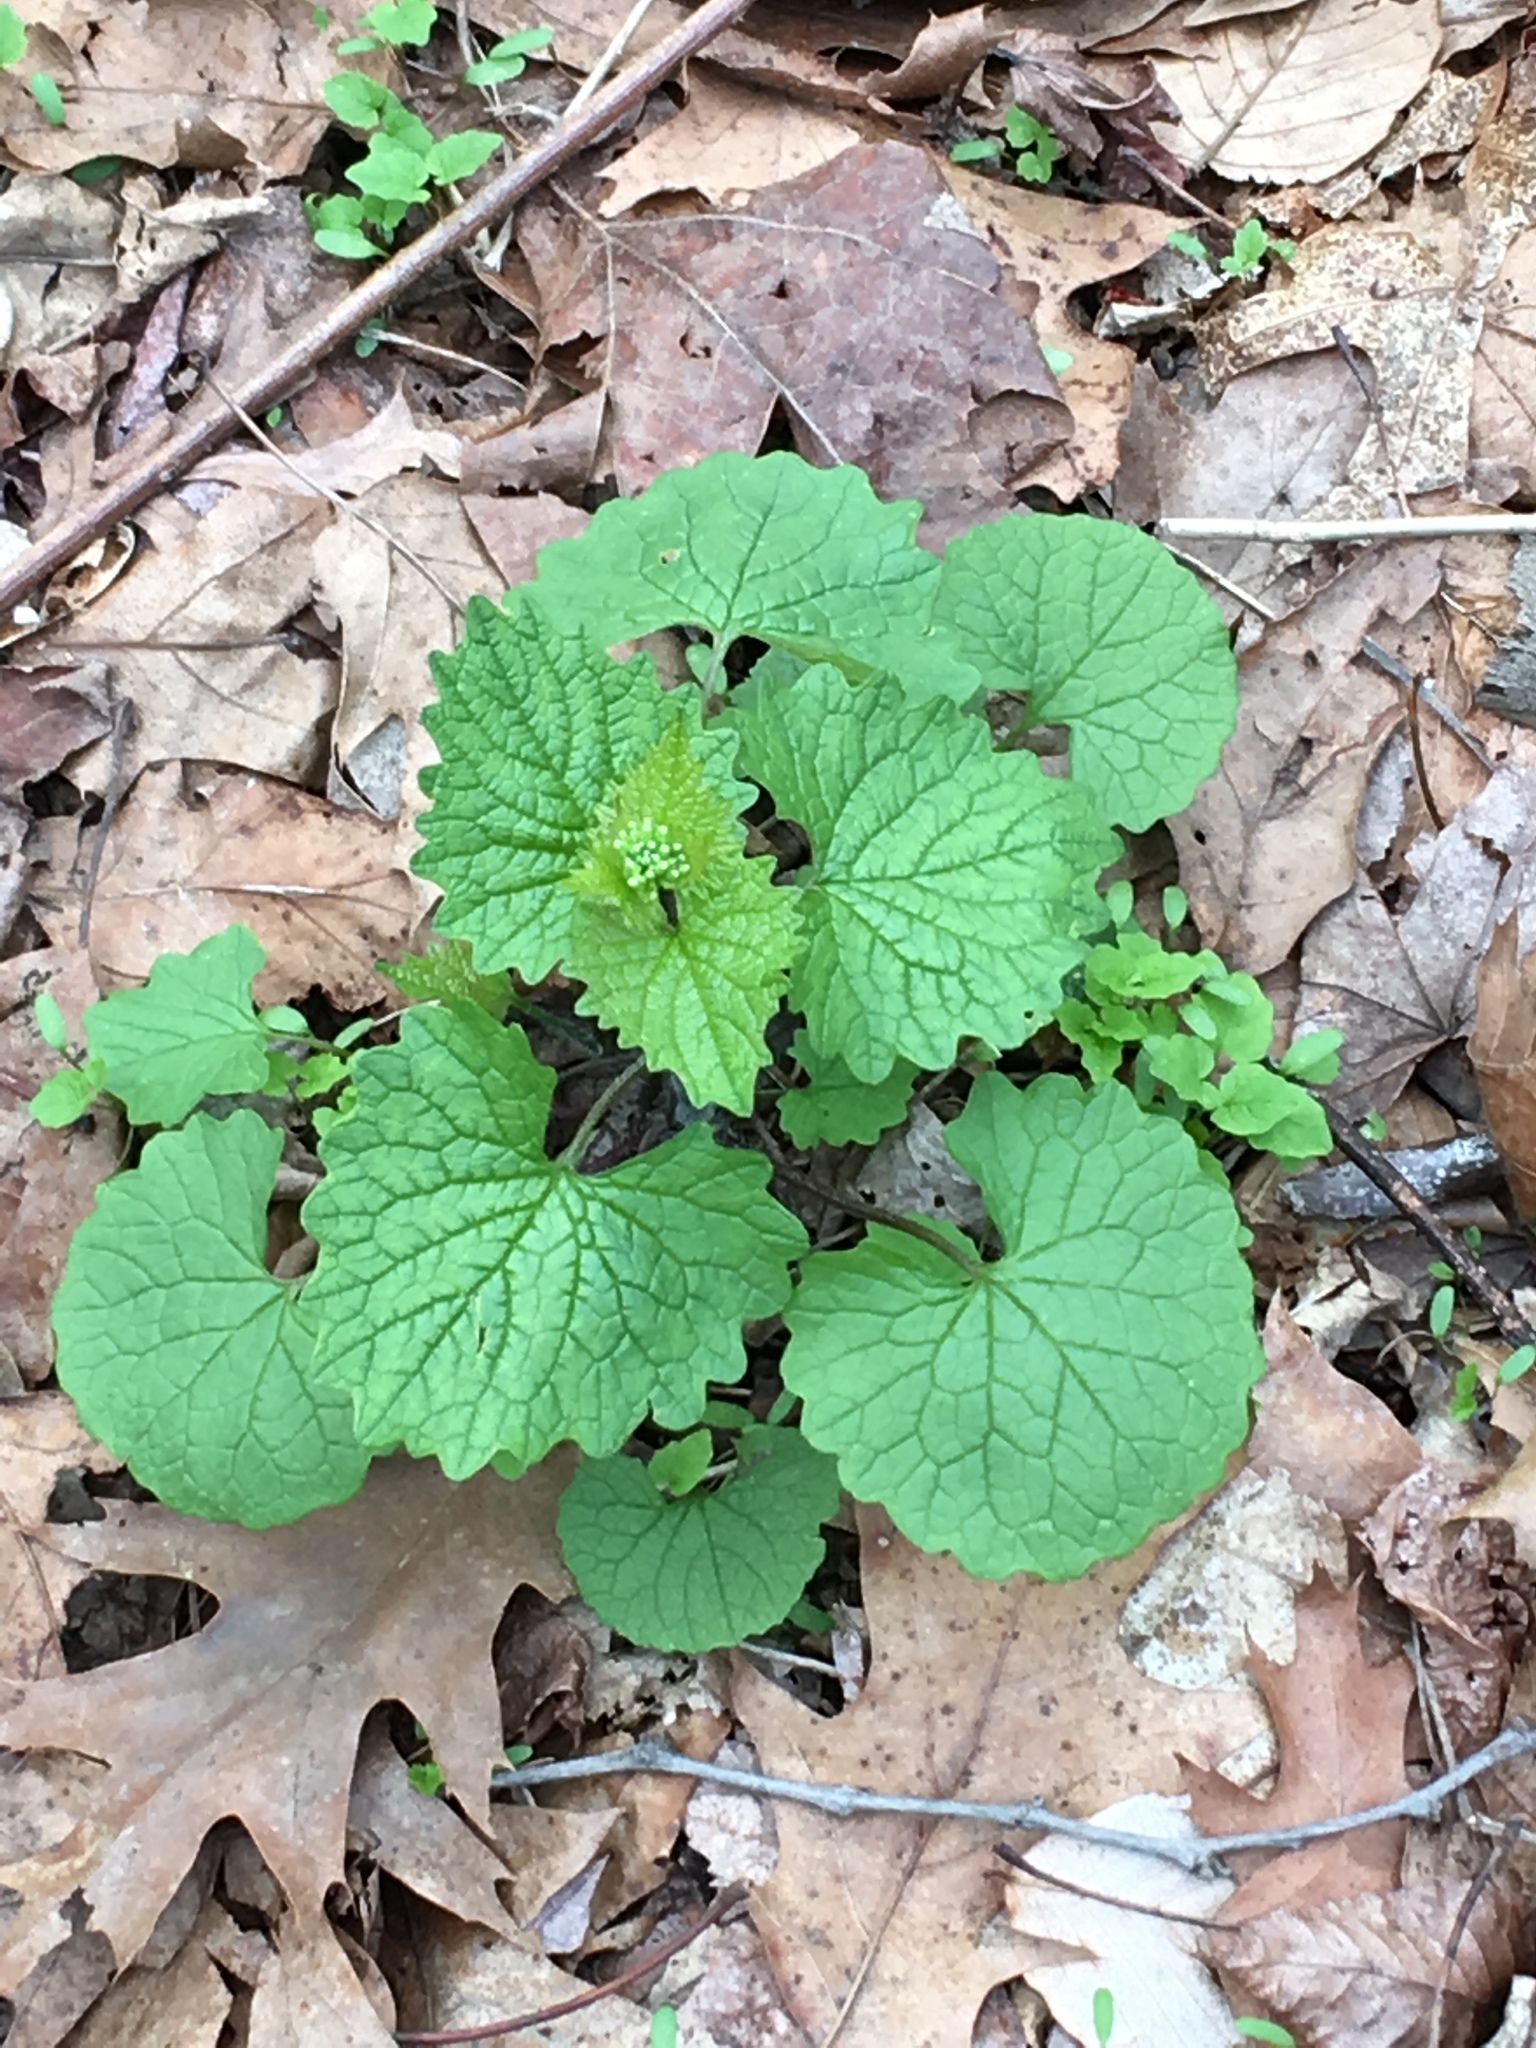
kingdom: Plantae
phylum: Tracheophyta
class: Magnoliopsida
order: Brassicales
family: Brassicaceae
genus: Alliaria
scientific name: Alliaria petiolata
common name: Garlic mustard
